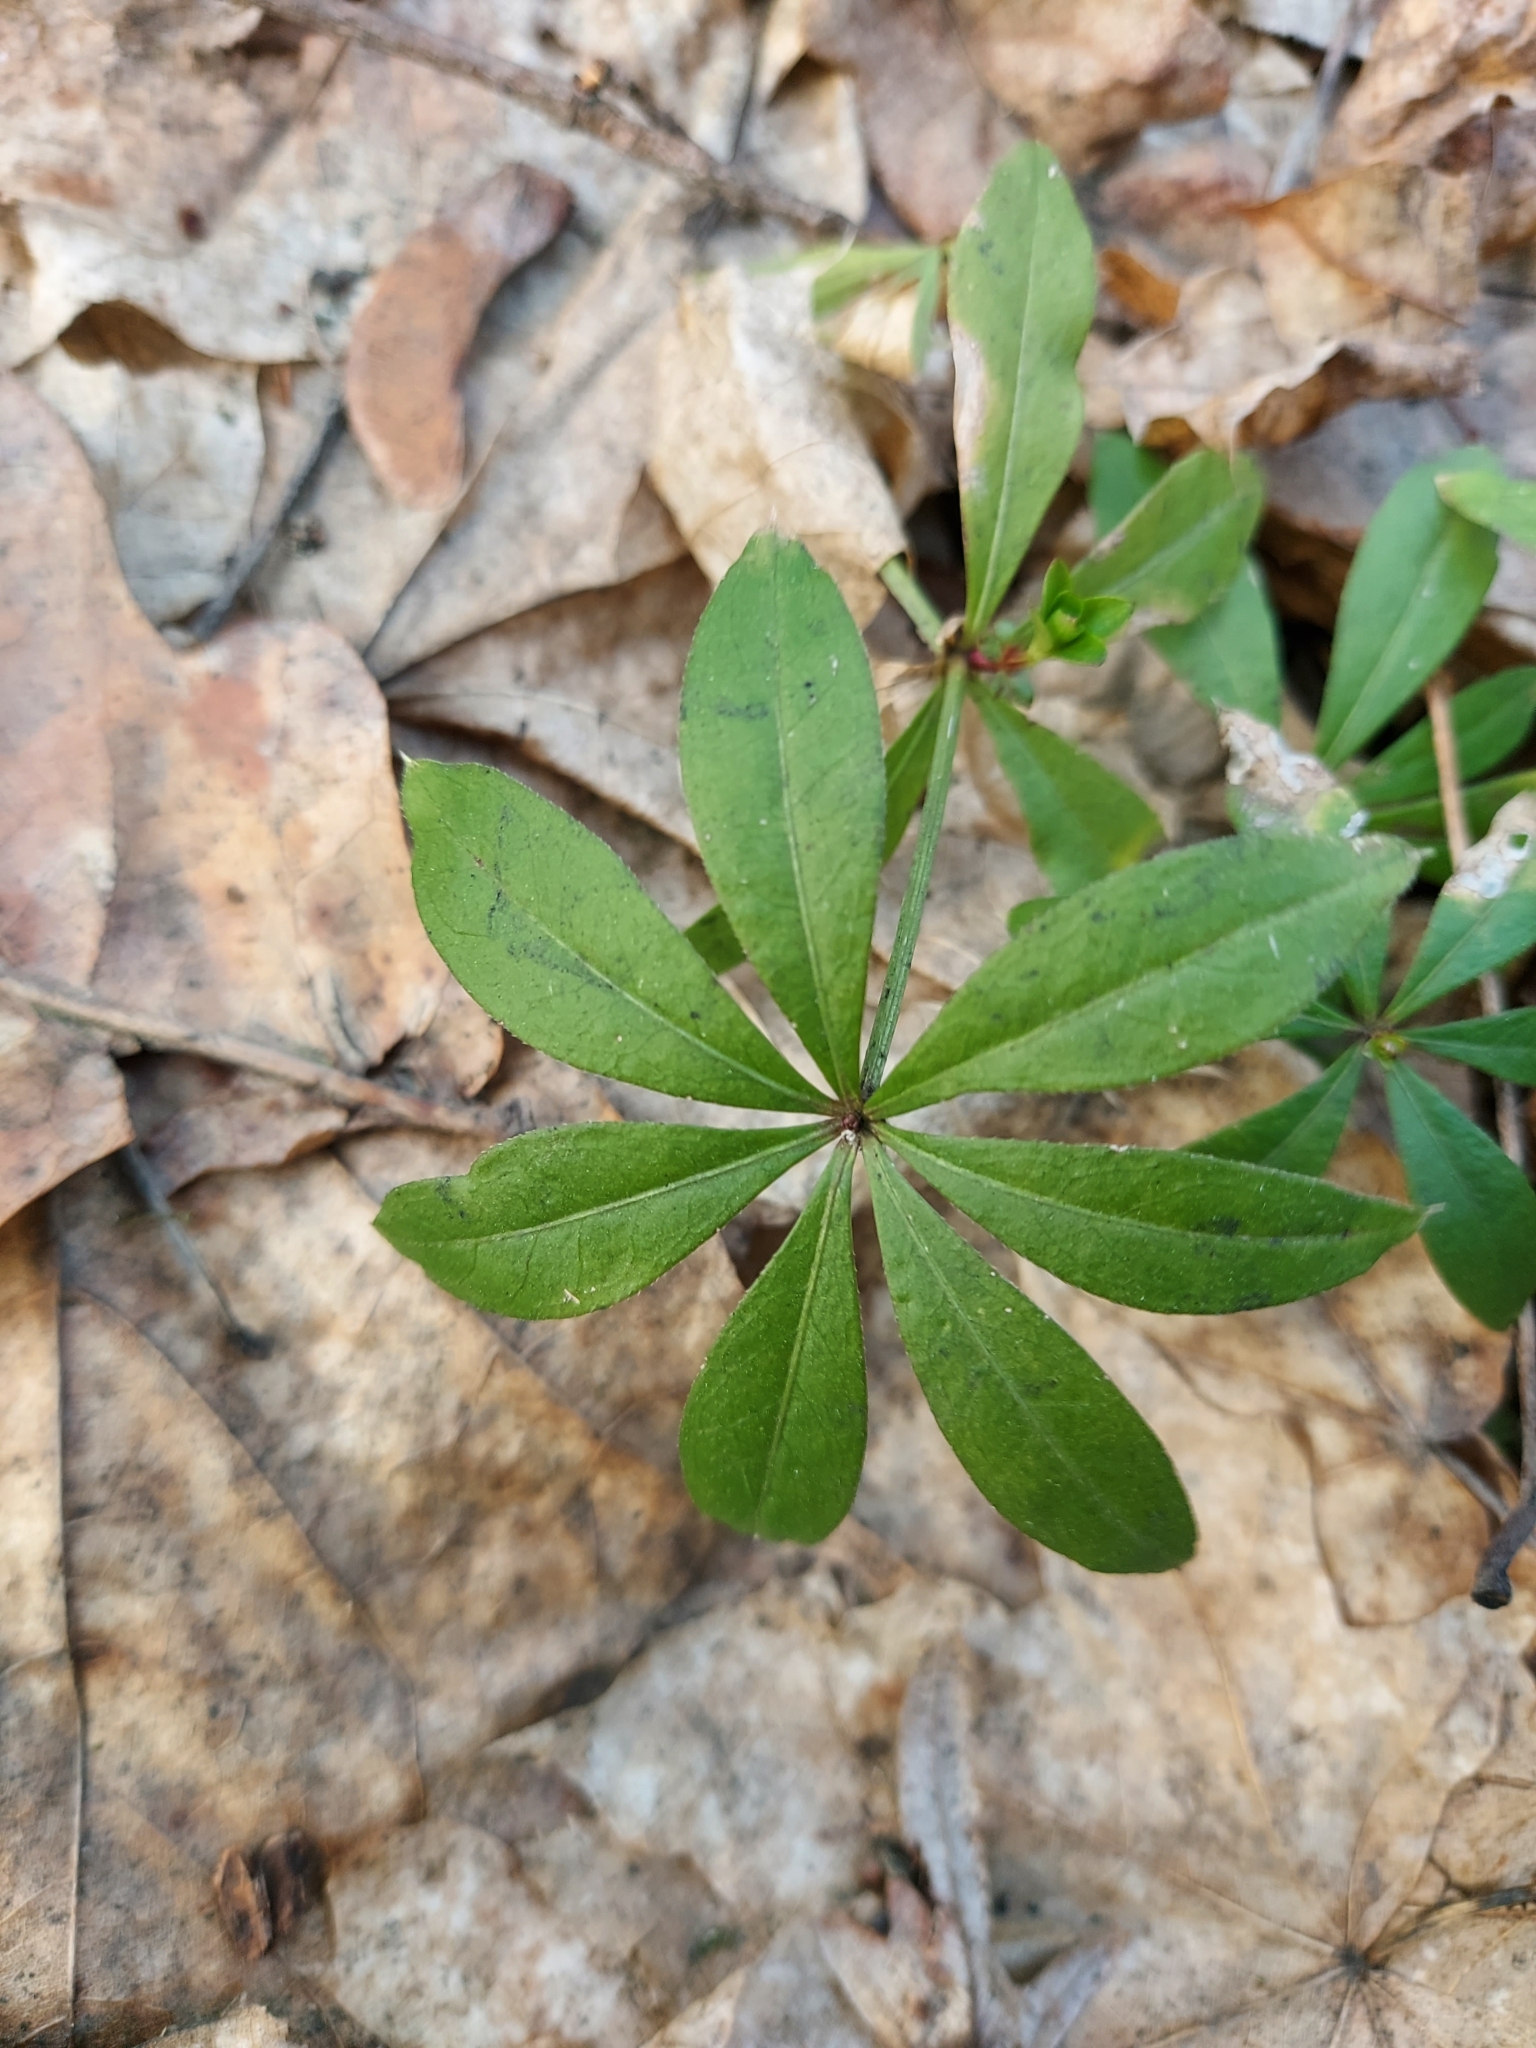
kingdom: Plantae
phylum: Tracheophyta
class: Magnoliopsida
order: Gentianales
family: Rubiaceae
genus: Galium
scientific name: Galium odoratum
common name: Sweet woodruff
